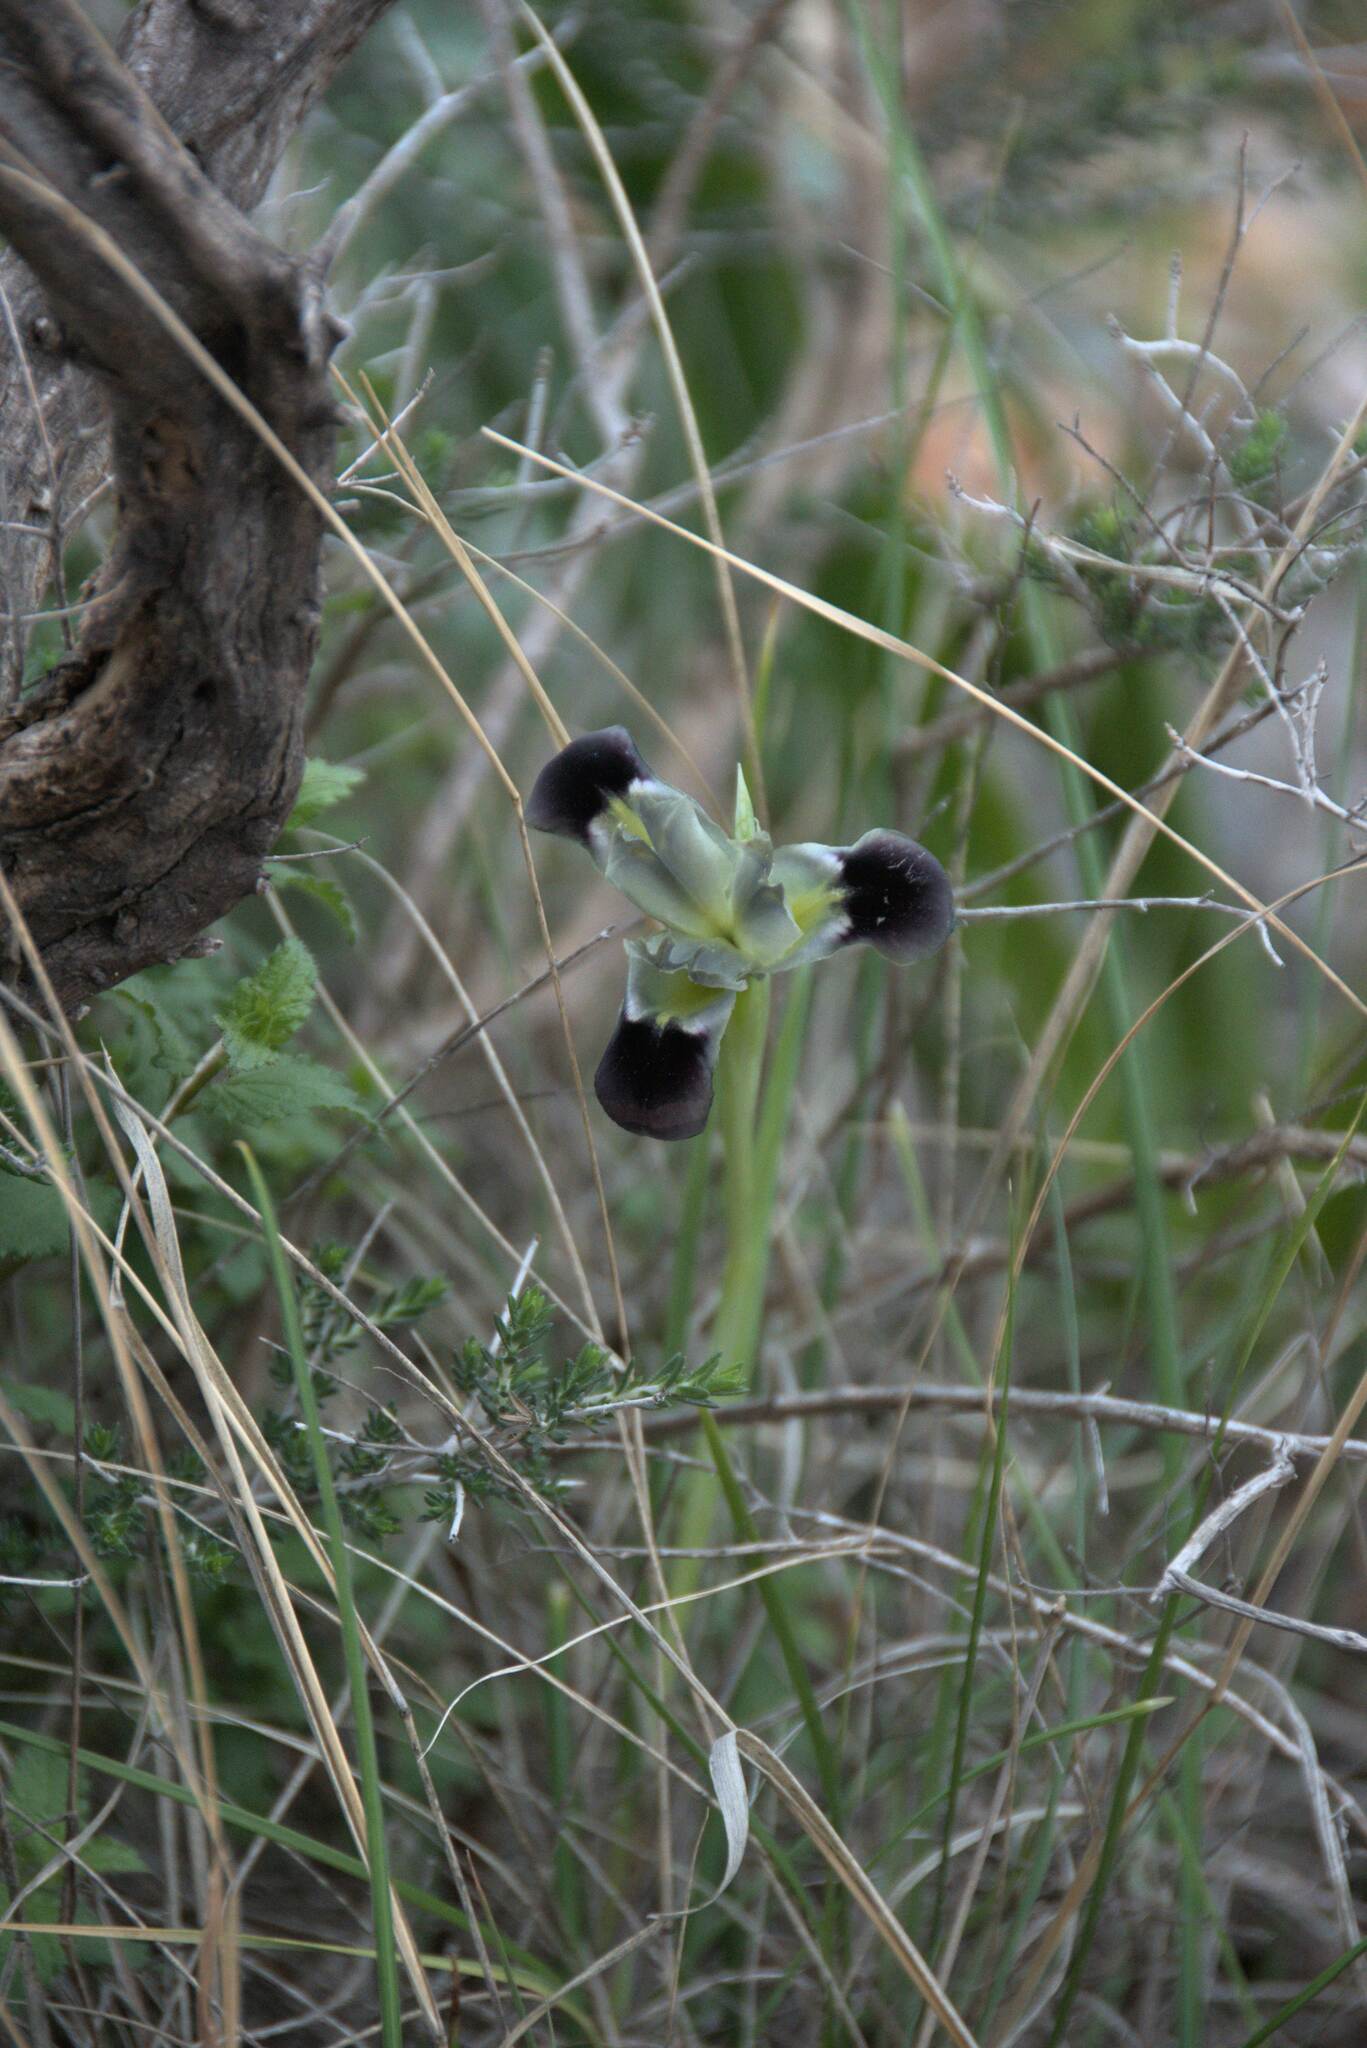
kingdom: Plantae
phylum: Tracheophyta
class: Liliopsida
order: Asparagales
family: Iridaceae
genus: Iris
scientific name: Iris tuberosa
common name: Snake's-head iris
